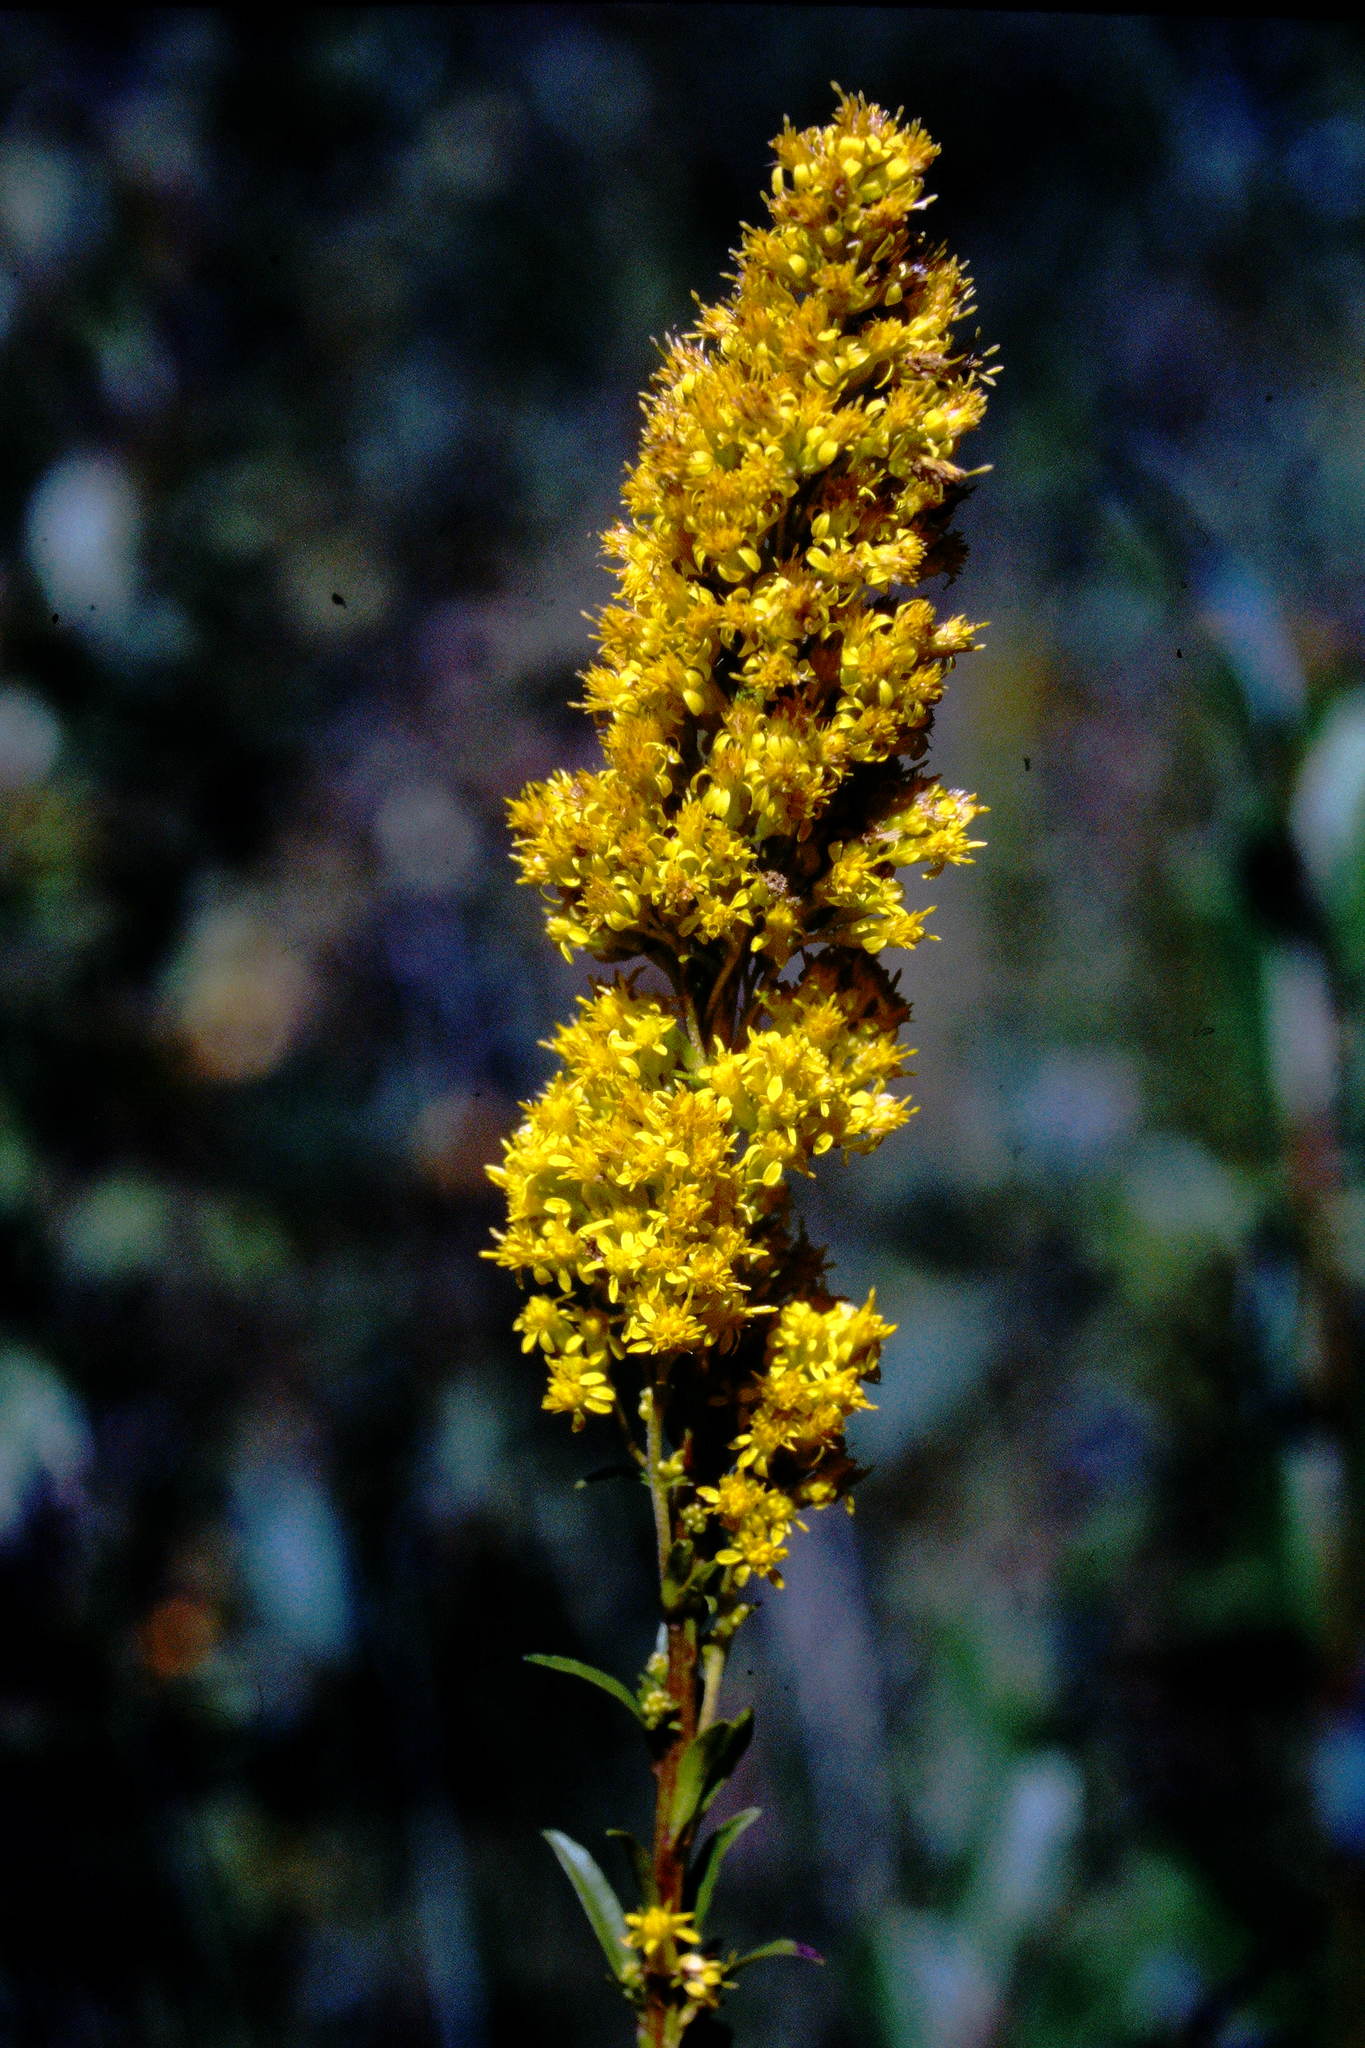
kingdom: Plantae
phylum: Tracheophyta
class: Magnoliopsida
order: Asterales
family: Asteraceae
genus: Solidago
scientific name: Solidago uliginosa
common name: Bog goldenrod
